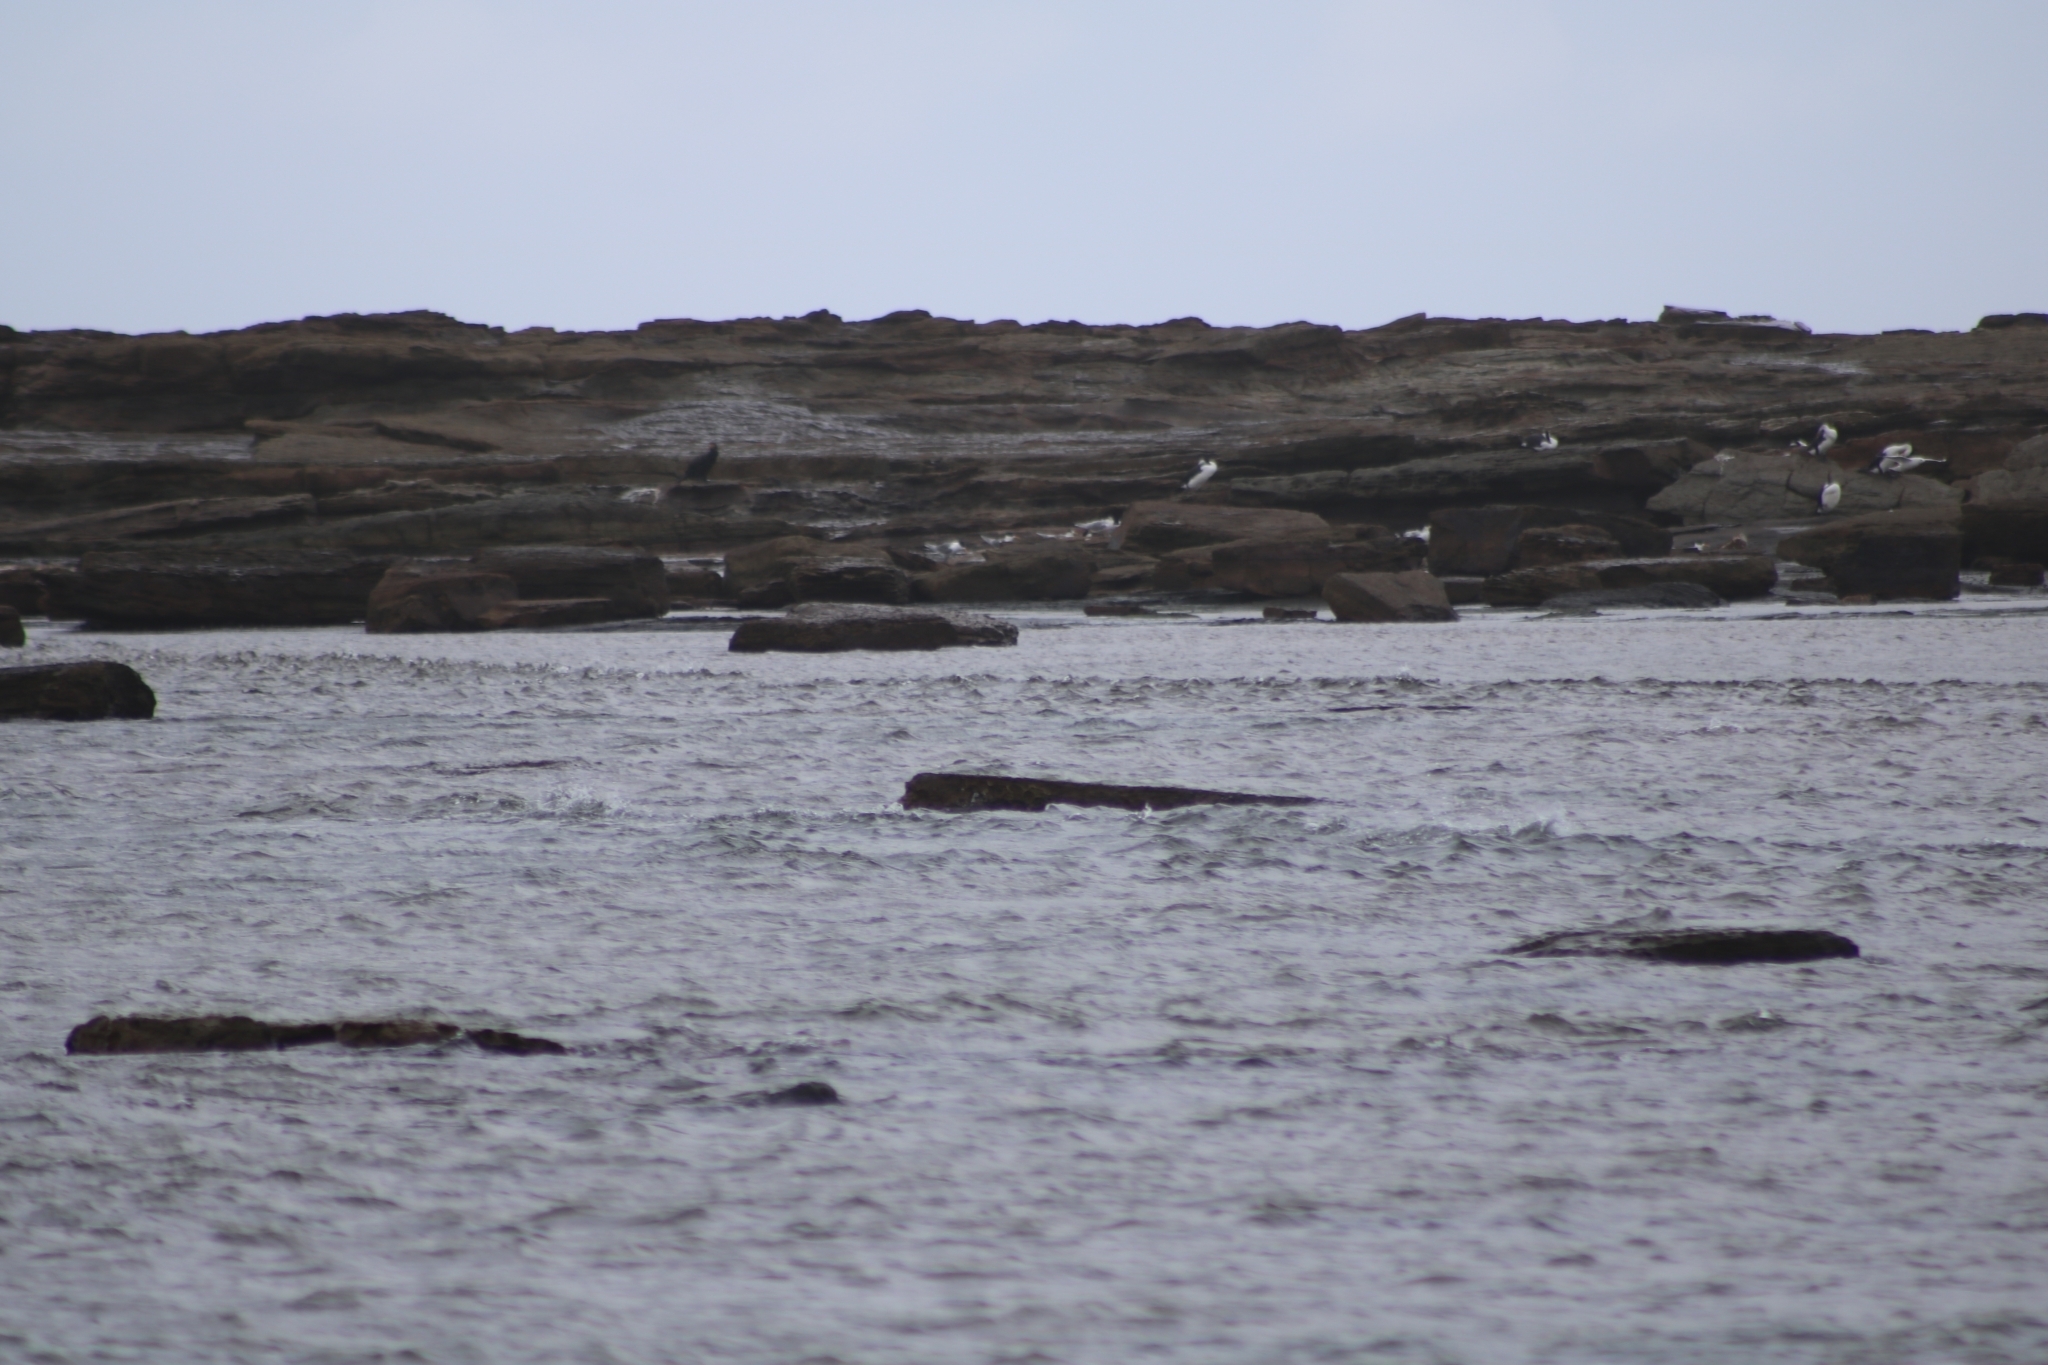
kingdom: Animalia
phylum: Chordata
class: Aves
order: Charadriiformes
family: Laridae
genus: Thalasseus
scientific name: Thalasseus bergii
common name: Greater crested tern
